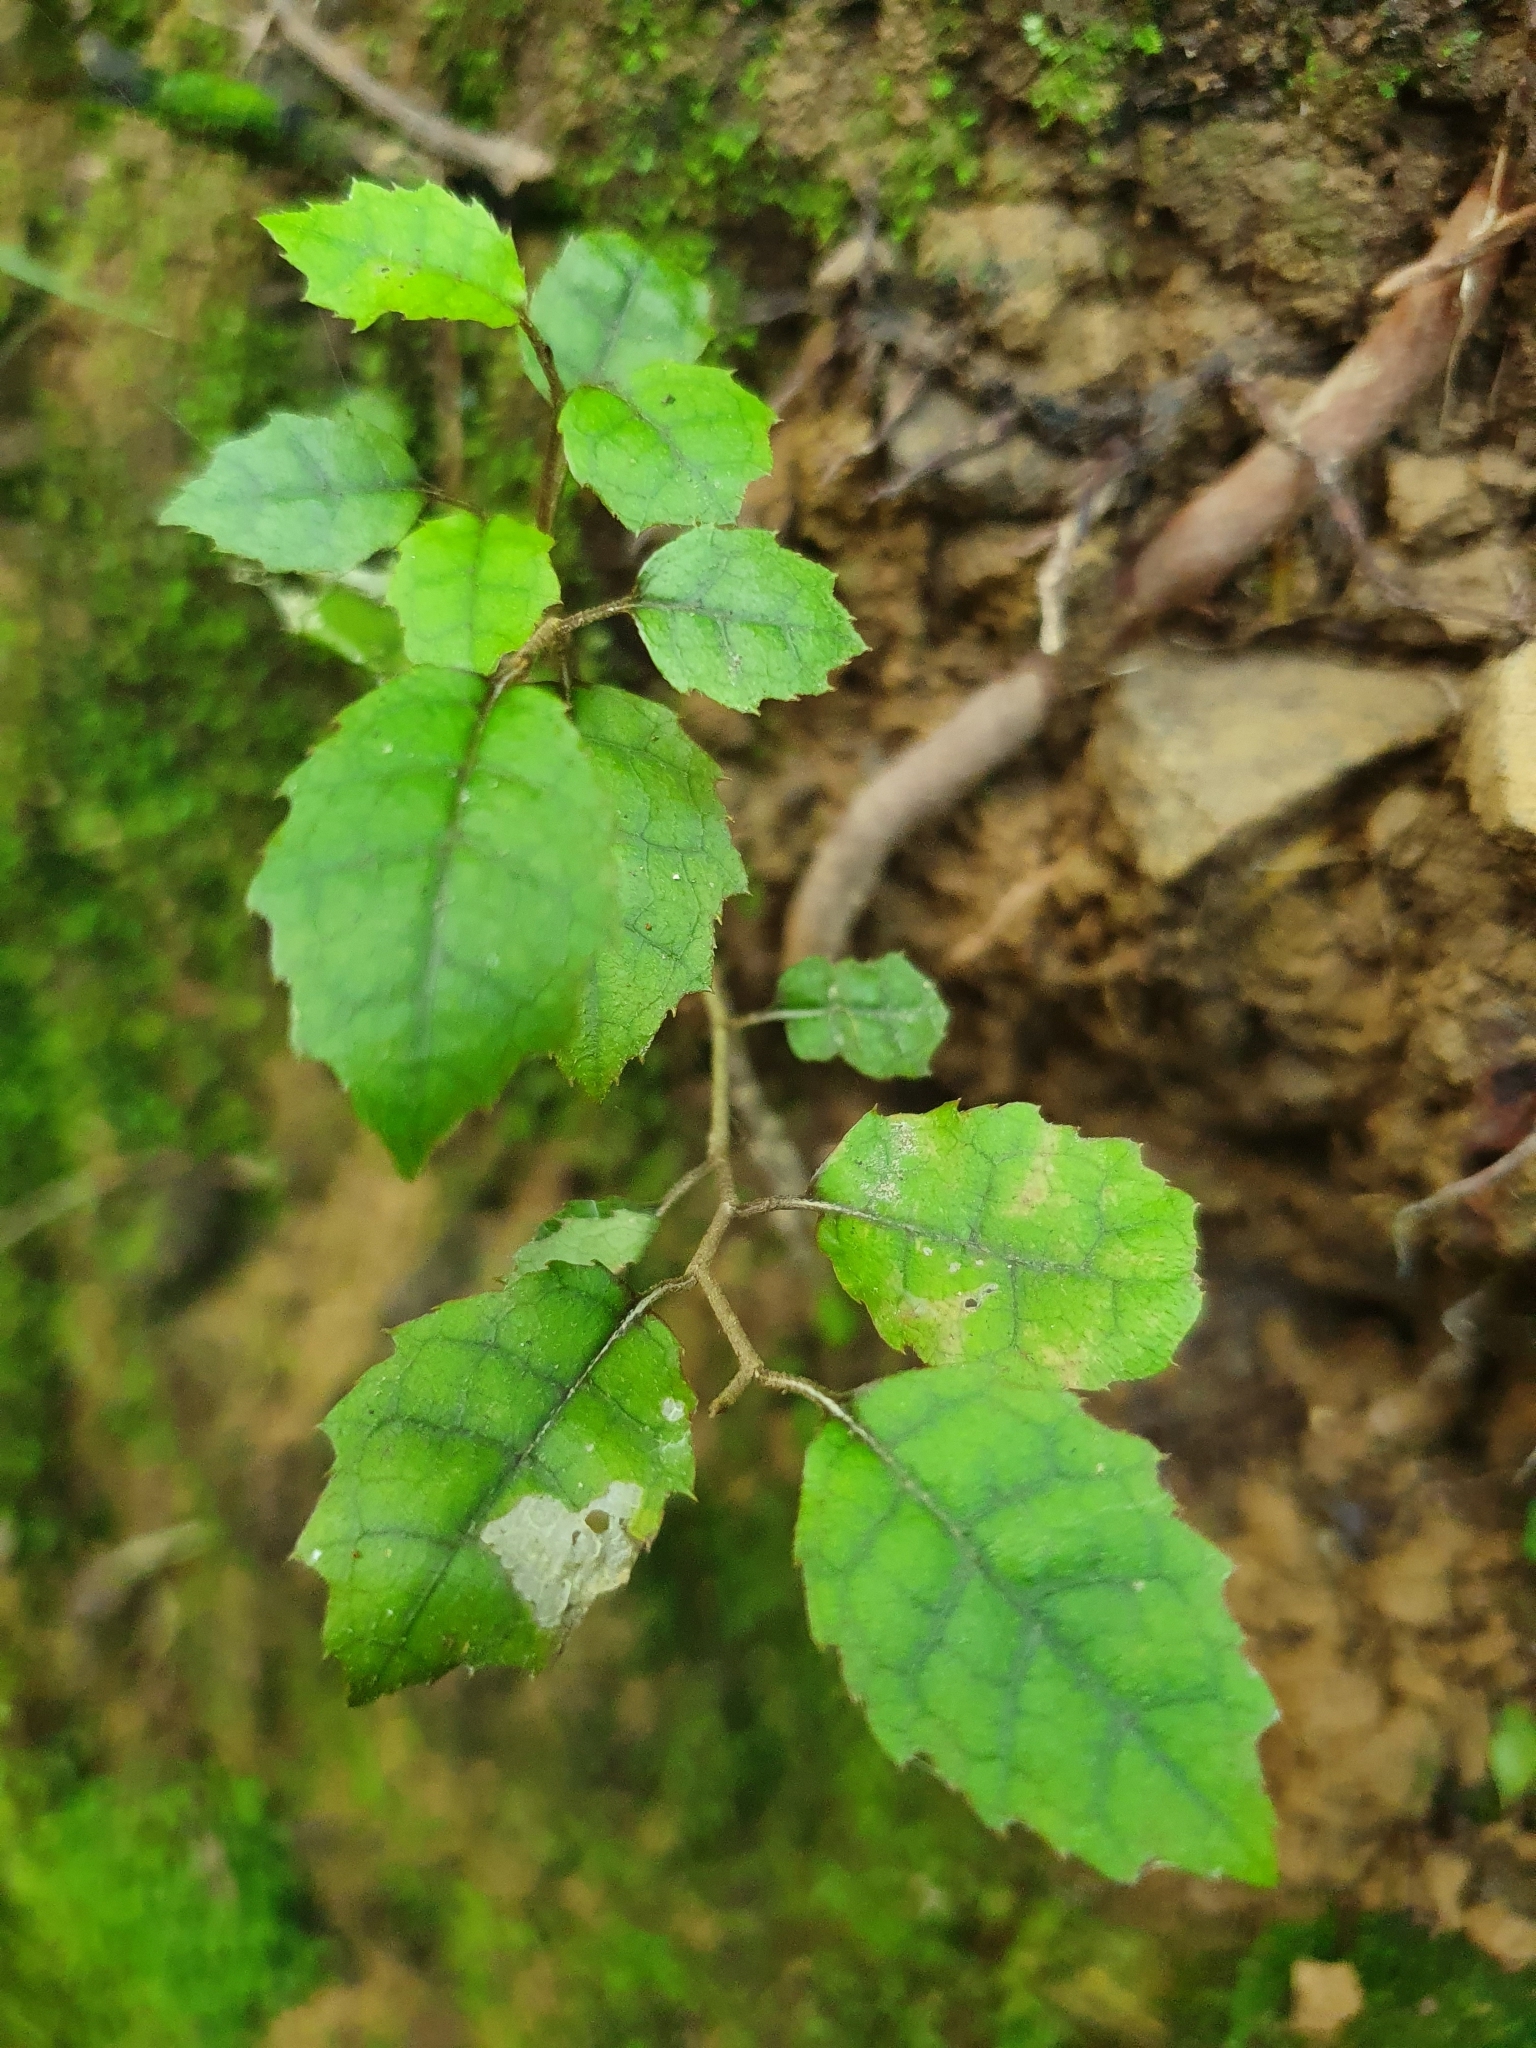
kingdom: Plantae
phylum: Tracheophyta
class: Magnoliopsida
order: Asterales
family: Rousseaceae
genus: Carpodetus
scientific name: Carpodetus serratus
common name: White mapau
